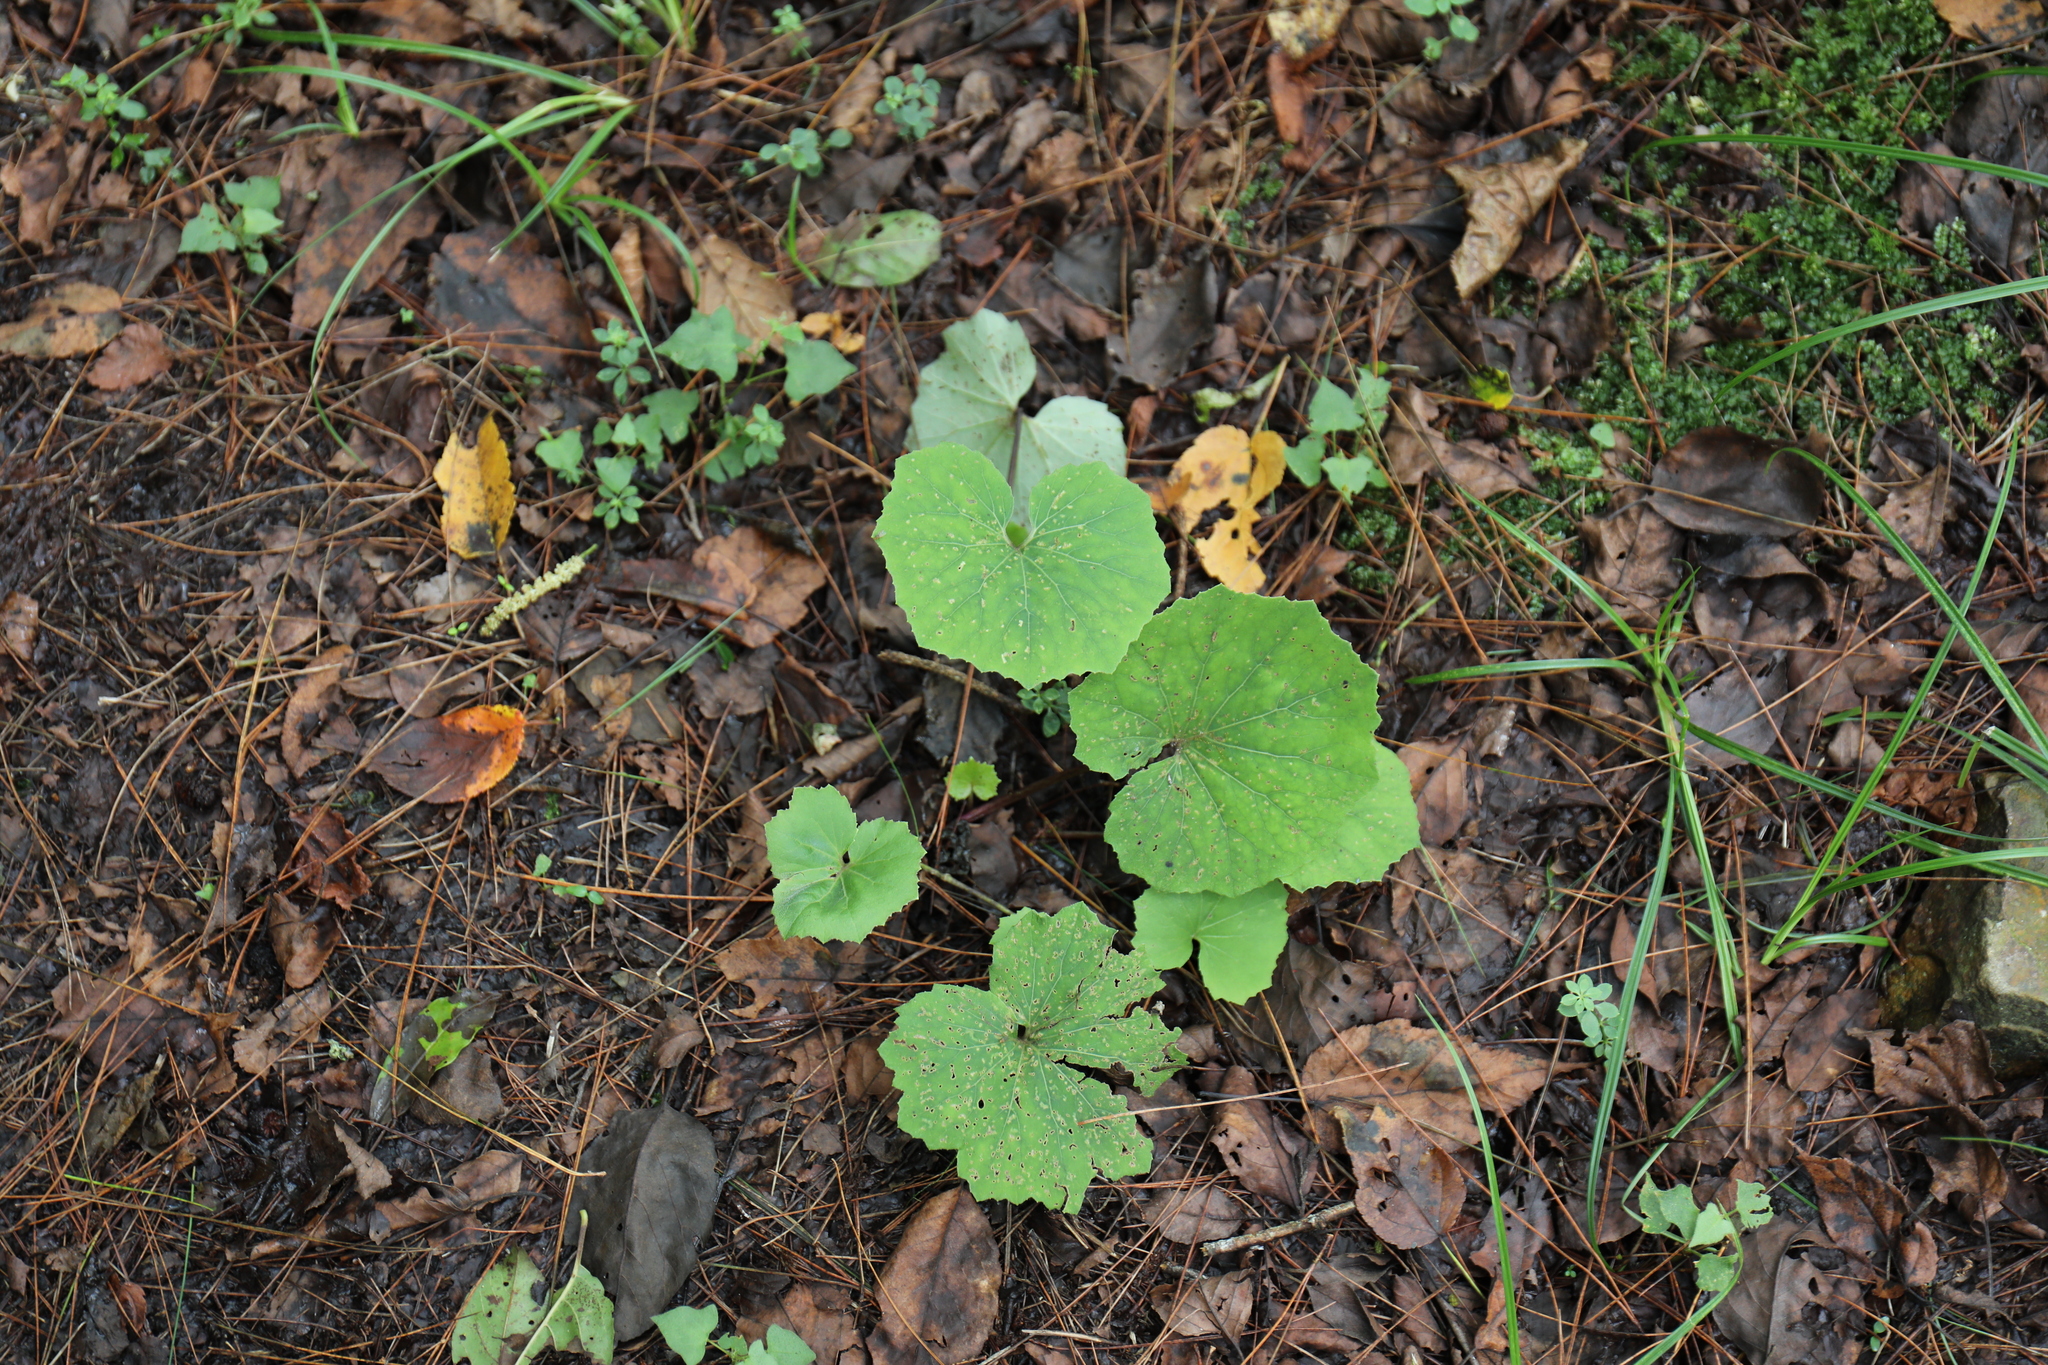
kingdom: Plantae
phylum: Tracheophyta
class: Magnoliopsida
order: Asterales
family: Asteraceae
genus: Petasites
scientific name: Petasites formosanus
